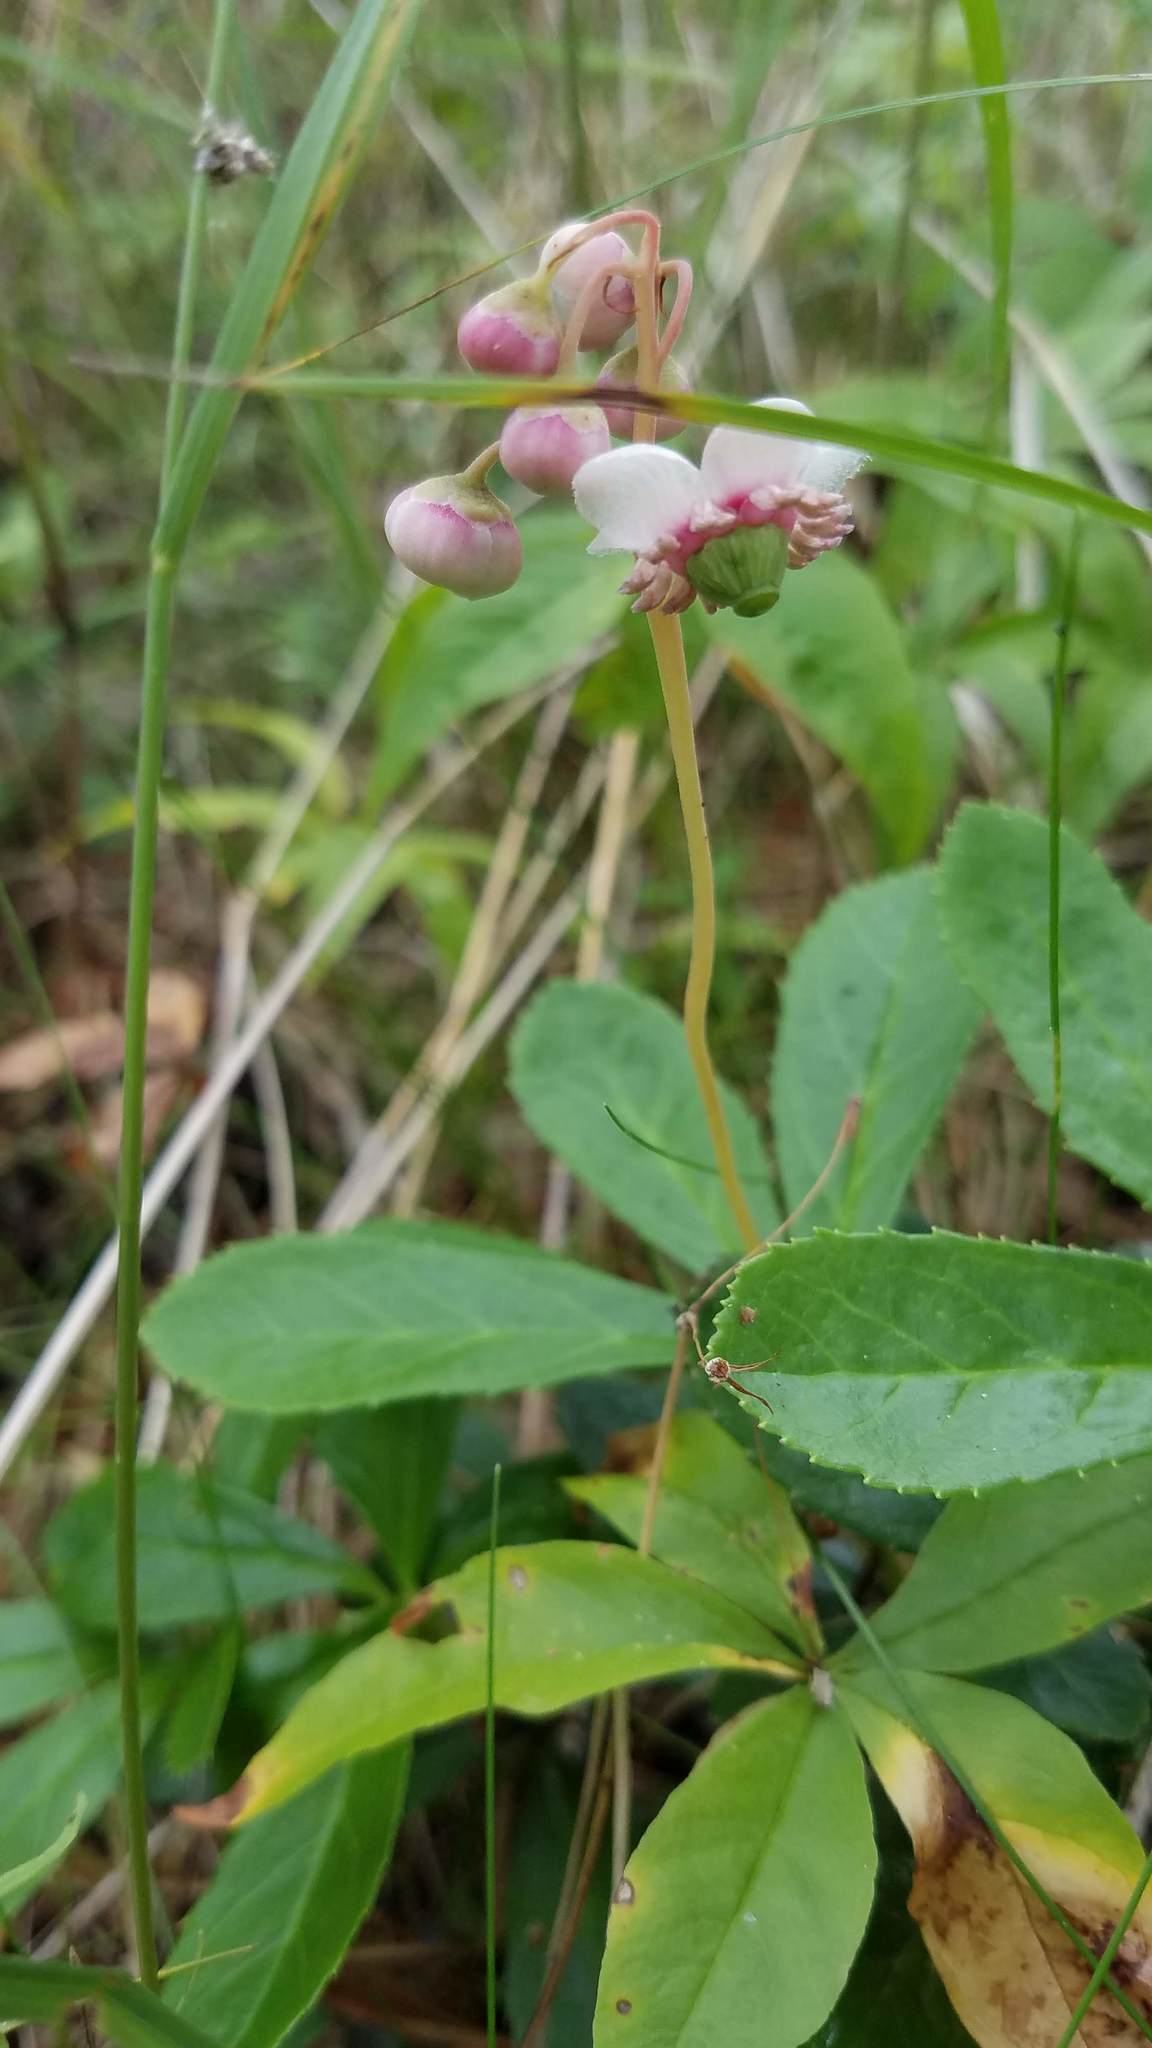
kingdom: Plantae
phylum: Tracheophyta
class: Magnoliopsida
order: Ericales
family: Ericaceae
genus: Chimaphila
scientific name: Chimaphila umbellata
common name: Pipsissewa
